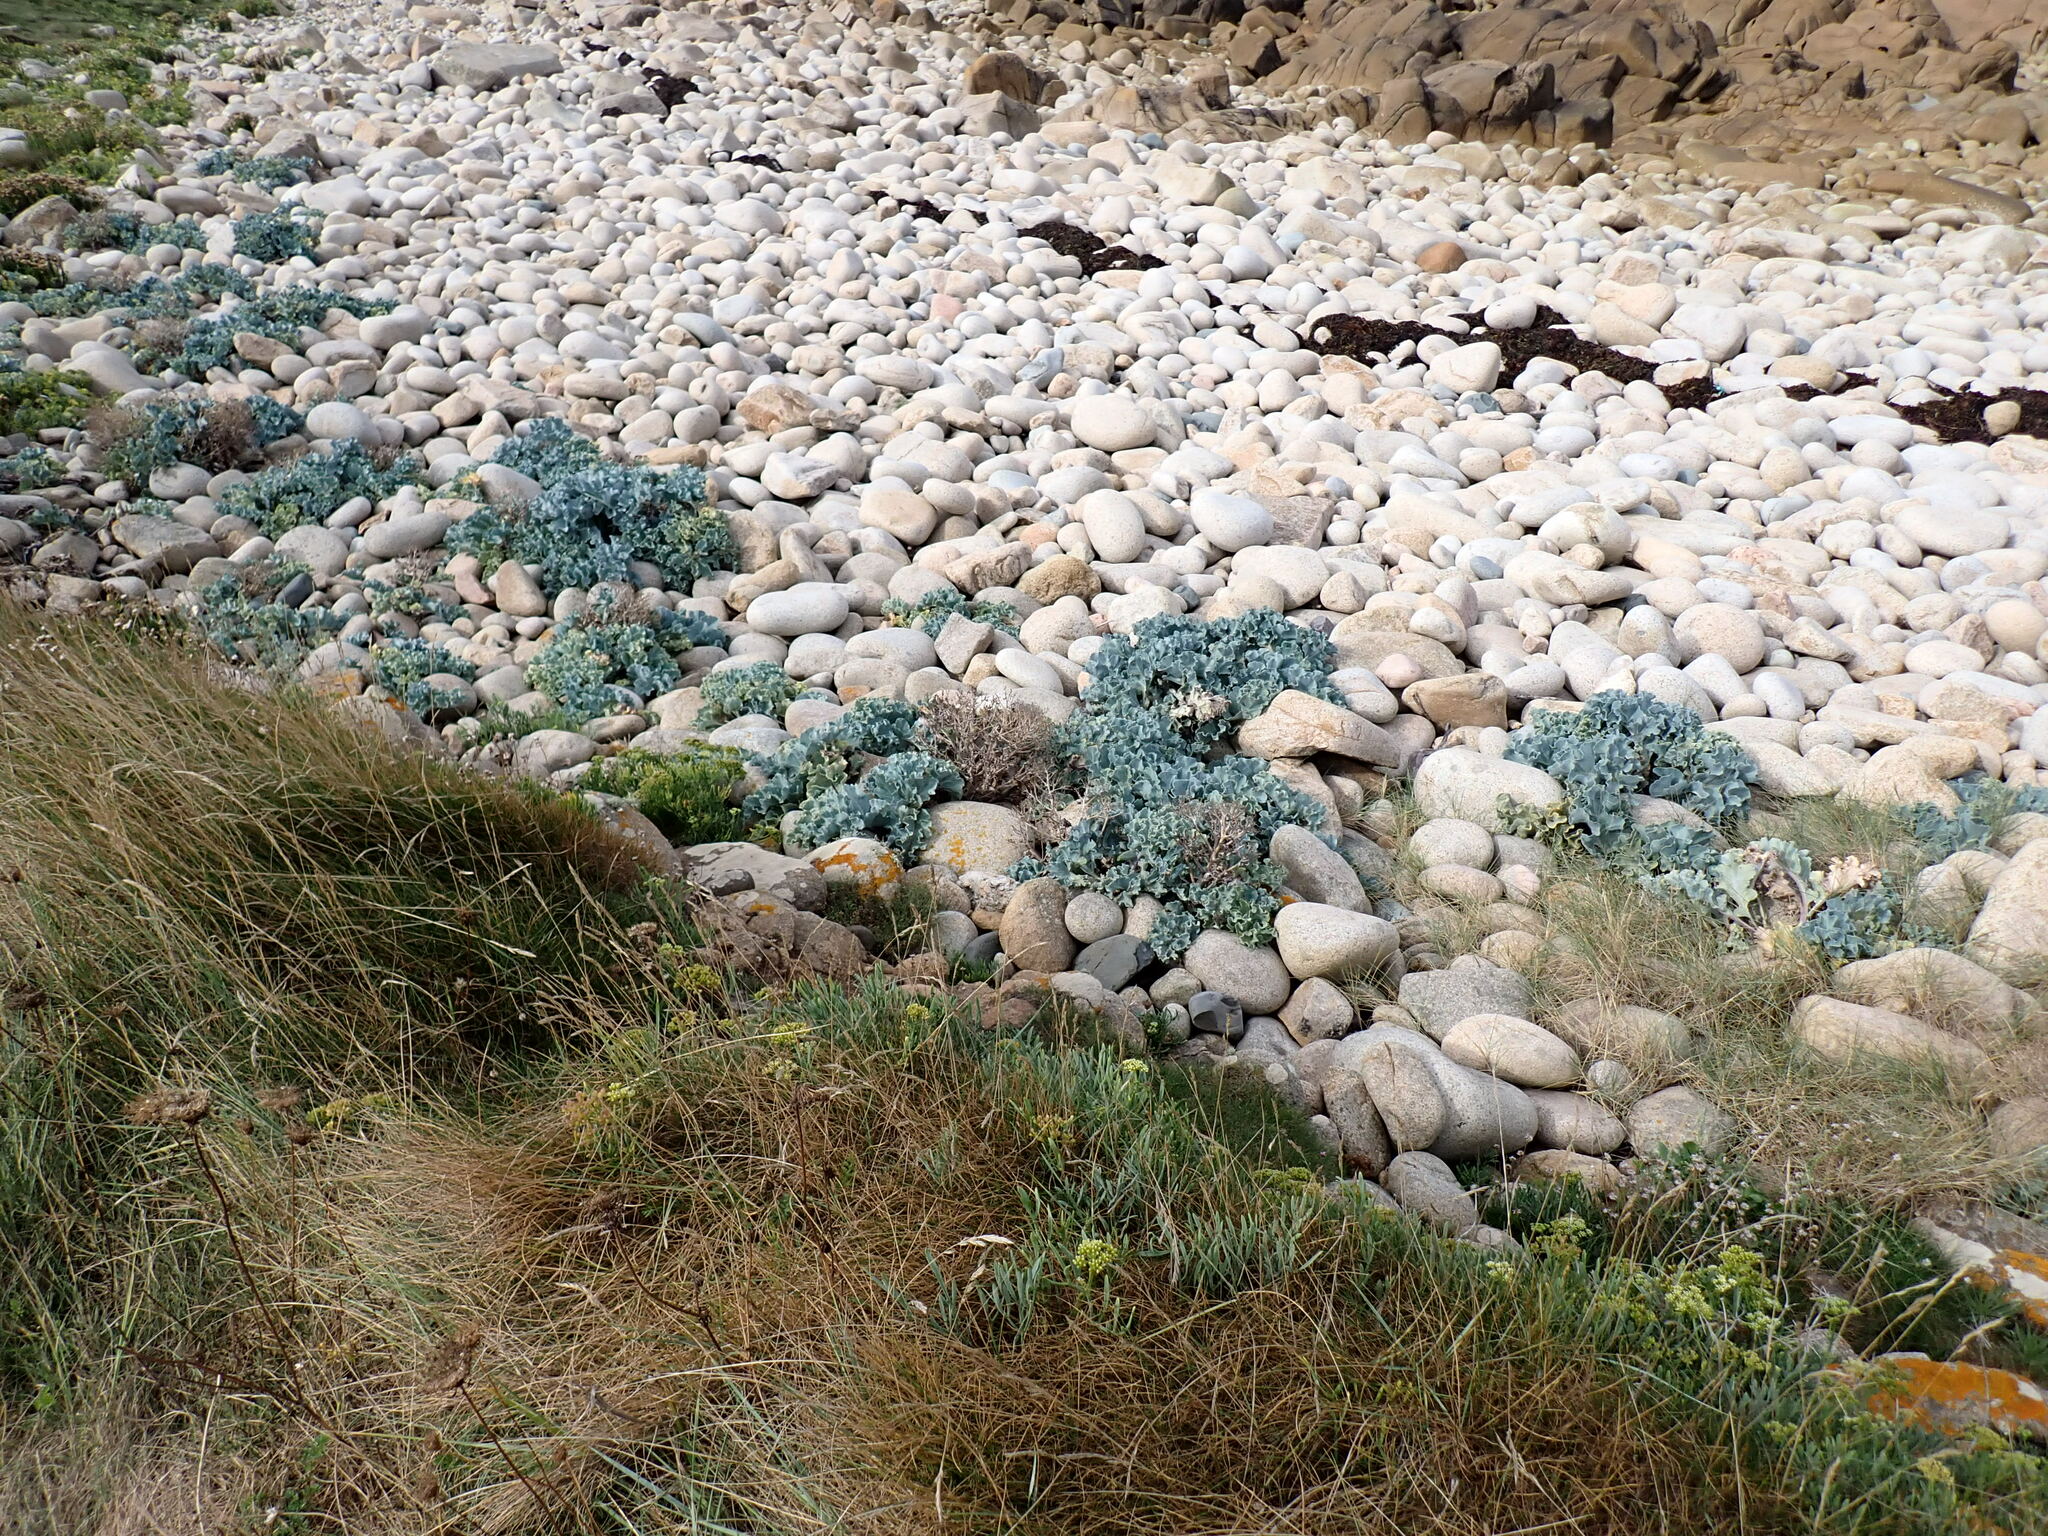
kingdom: Plantae
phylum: Tracheophyta
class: Magnoliopsida
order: Brassicales
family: Brassicaceae
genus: Crambe
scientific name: Crambe maritima
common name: Sea-kale
